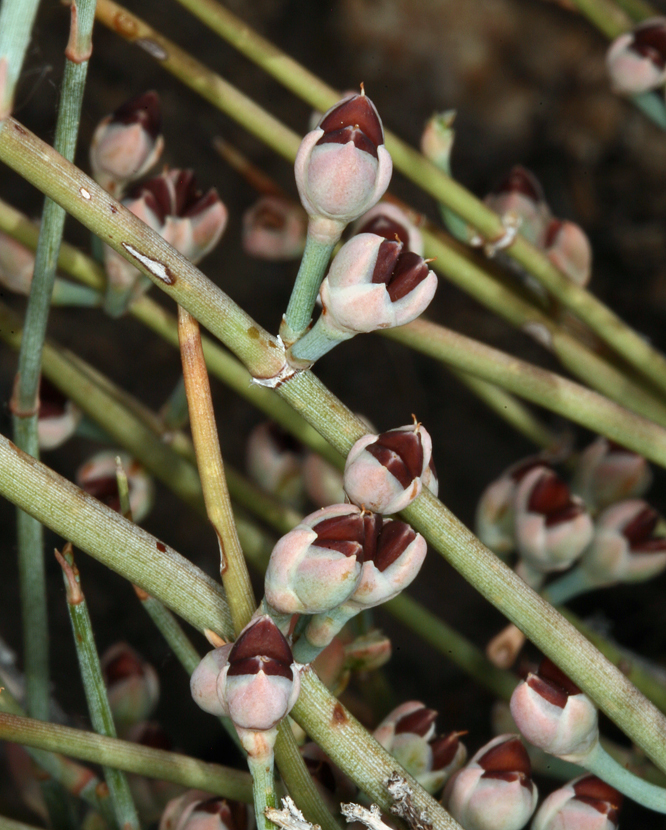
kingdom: Plantae
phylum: Tracheophyta
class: Gnetopsida
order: Ephedrales
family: Ephedraceae
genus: Ephedra
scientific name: Ephedra nevadensis
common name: Gray ephedra
